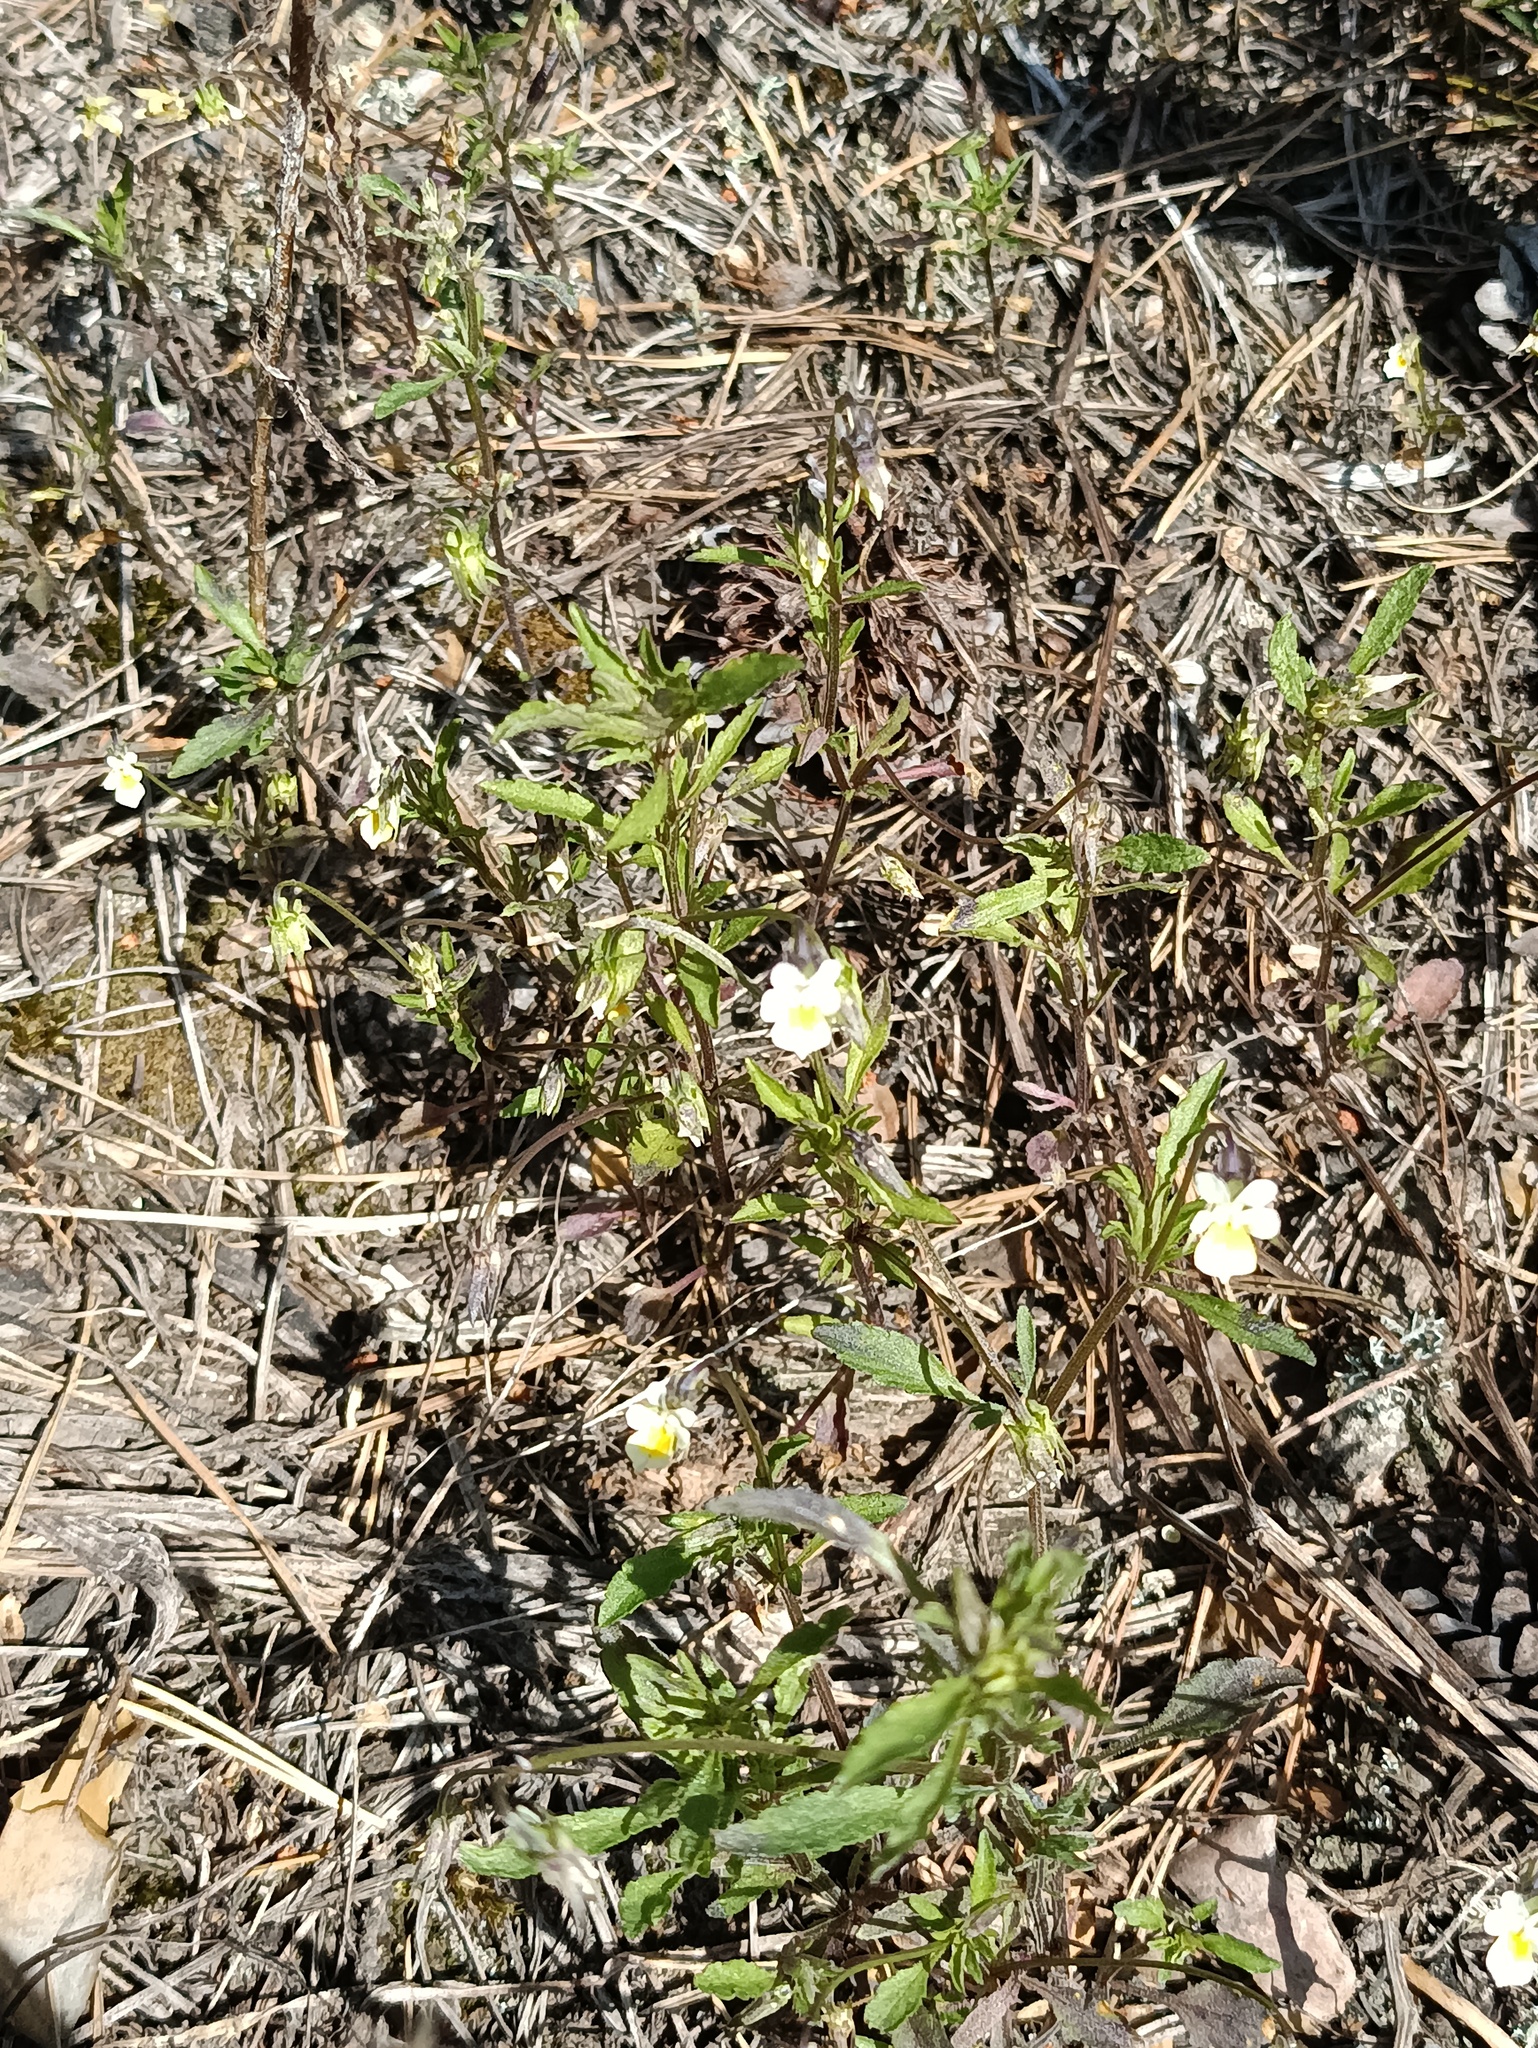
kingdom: Plantae
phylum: Tracheophyta
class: Magnoliopsida
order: Malpighiales
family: Violaceae
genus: Viola
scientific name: Viola arvensis
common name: Field pansy
